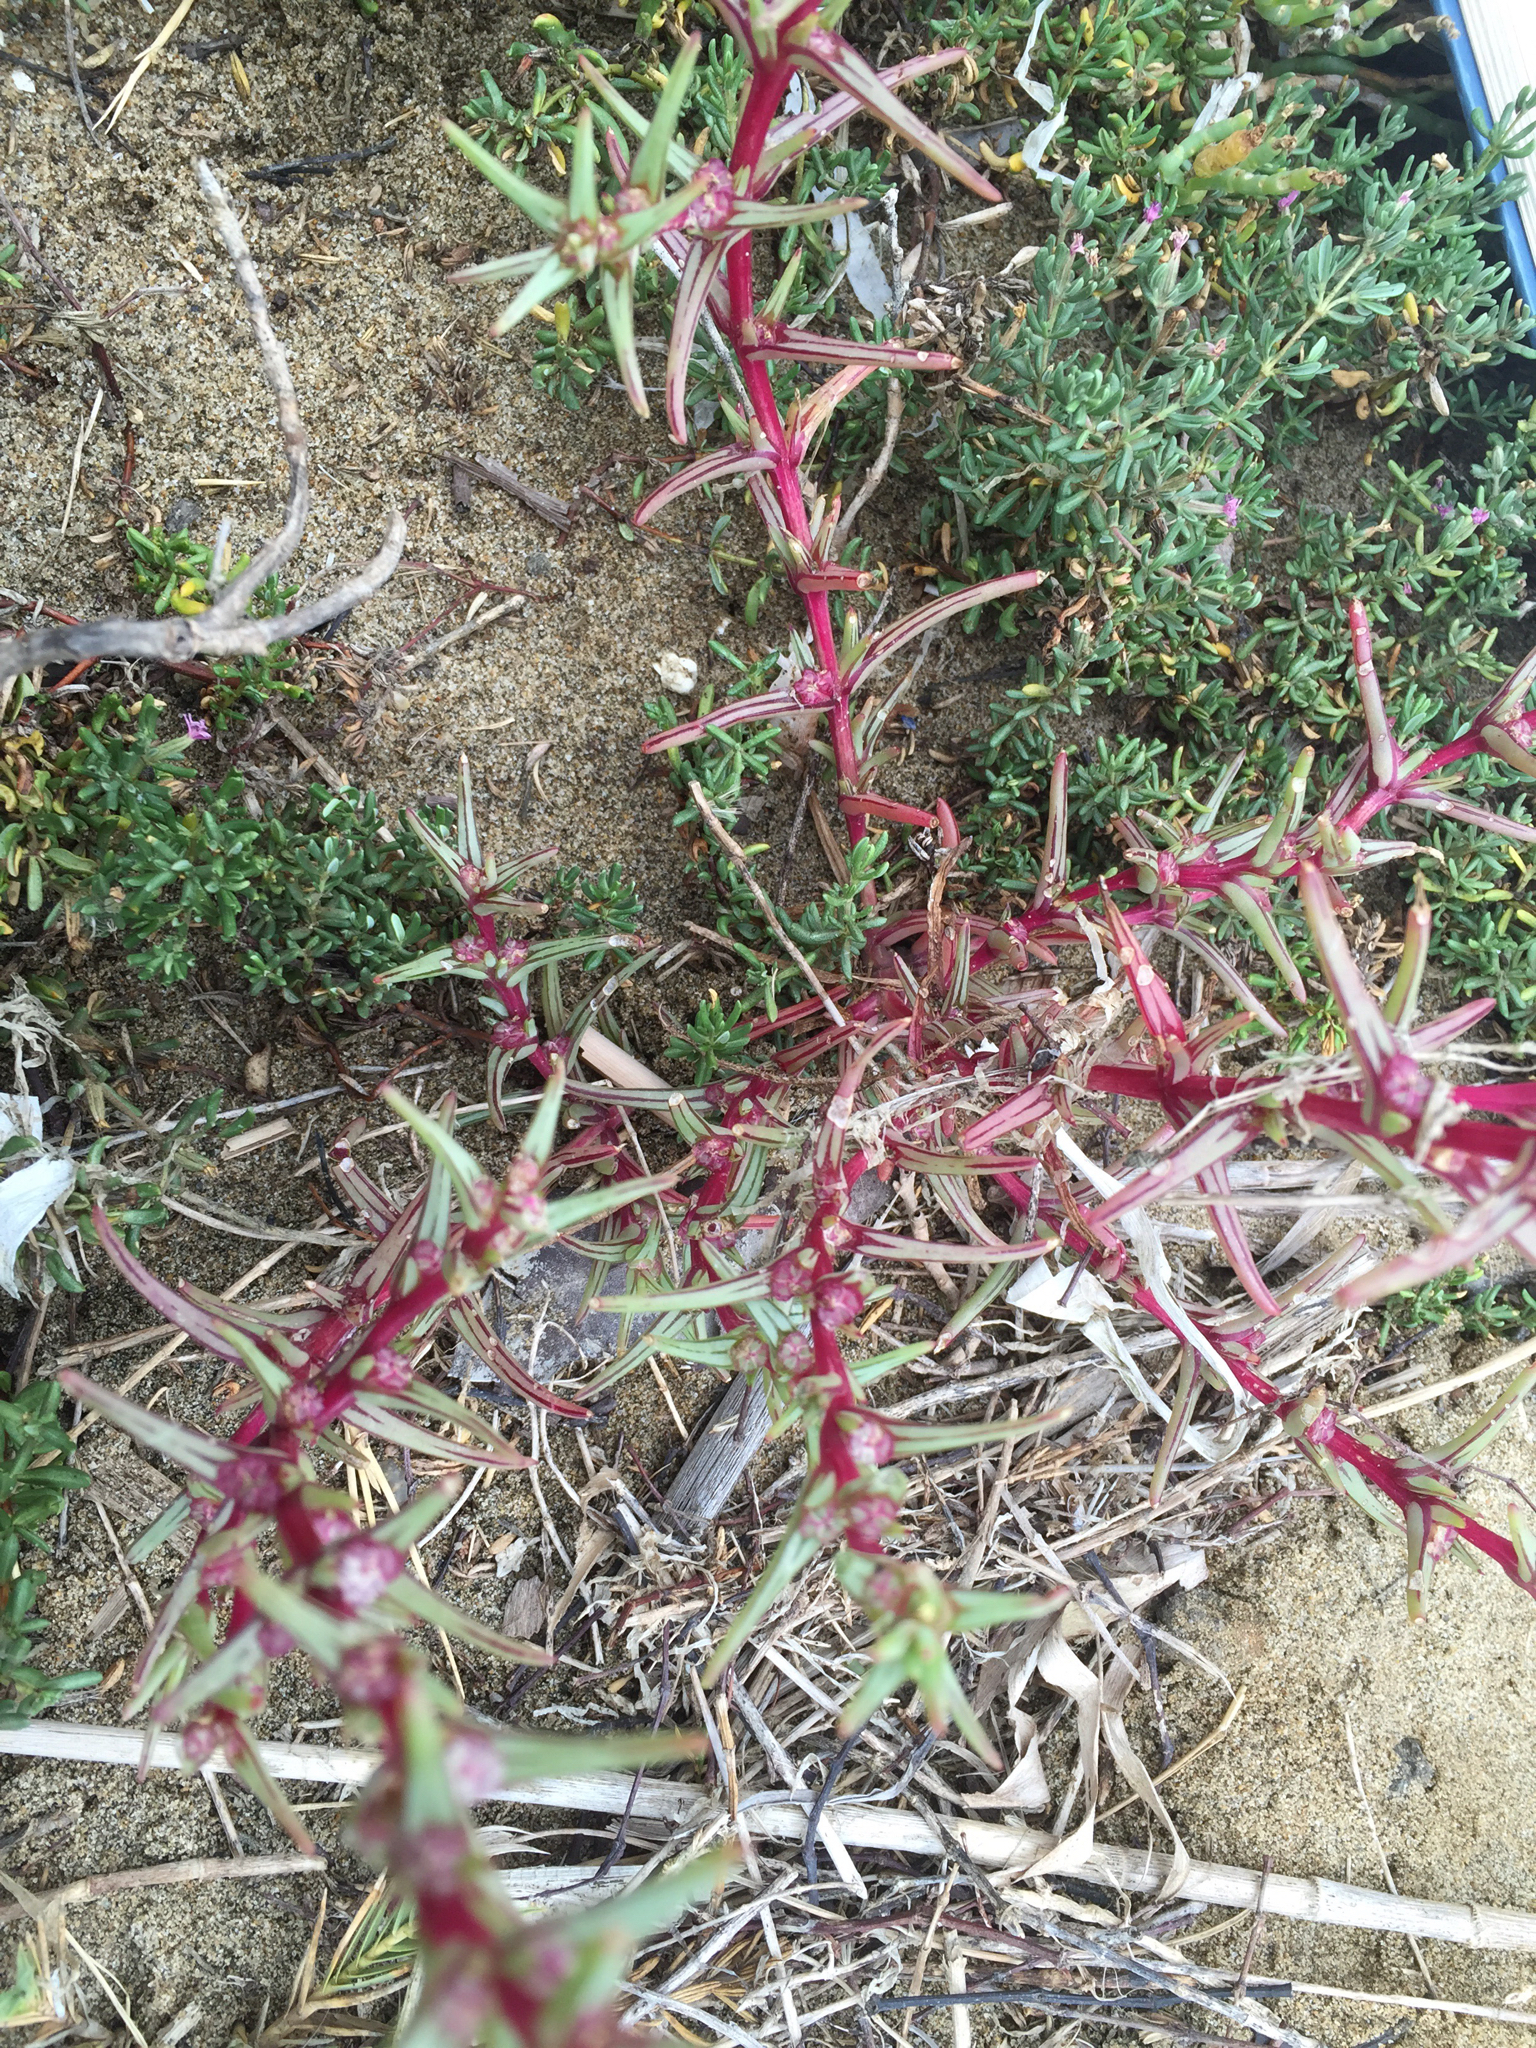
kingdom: Plantae
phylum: Tracheophyta
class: Magnoliopsida
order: Caryophyllales
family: Amaranthaceae
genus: Salsola
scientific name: Salsola soda
